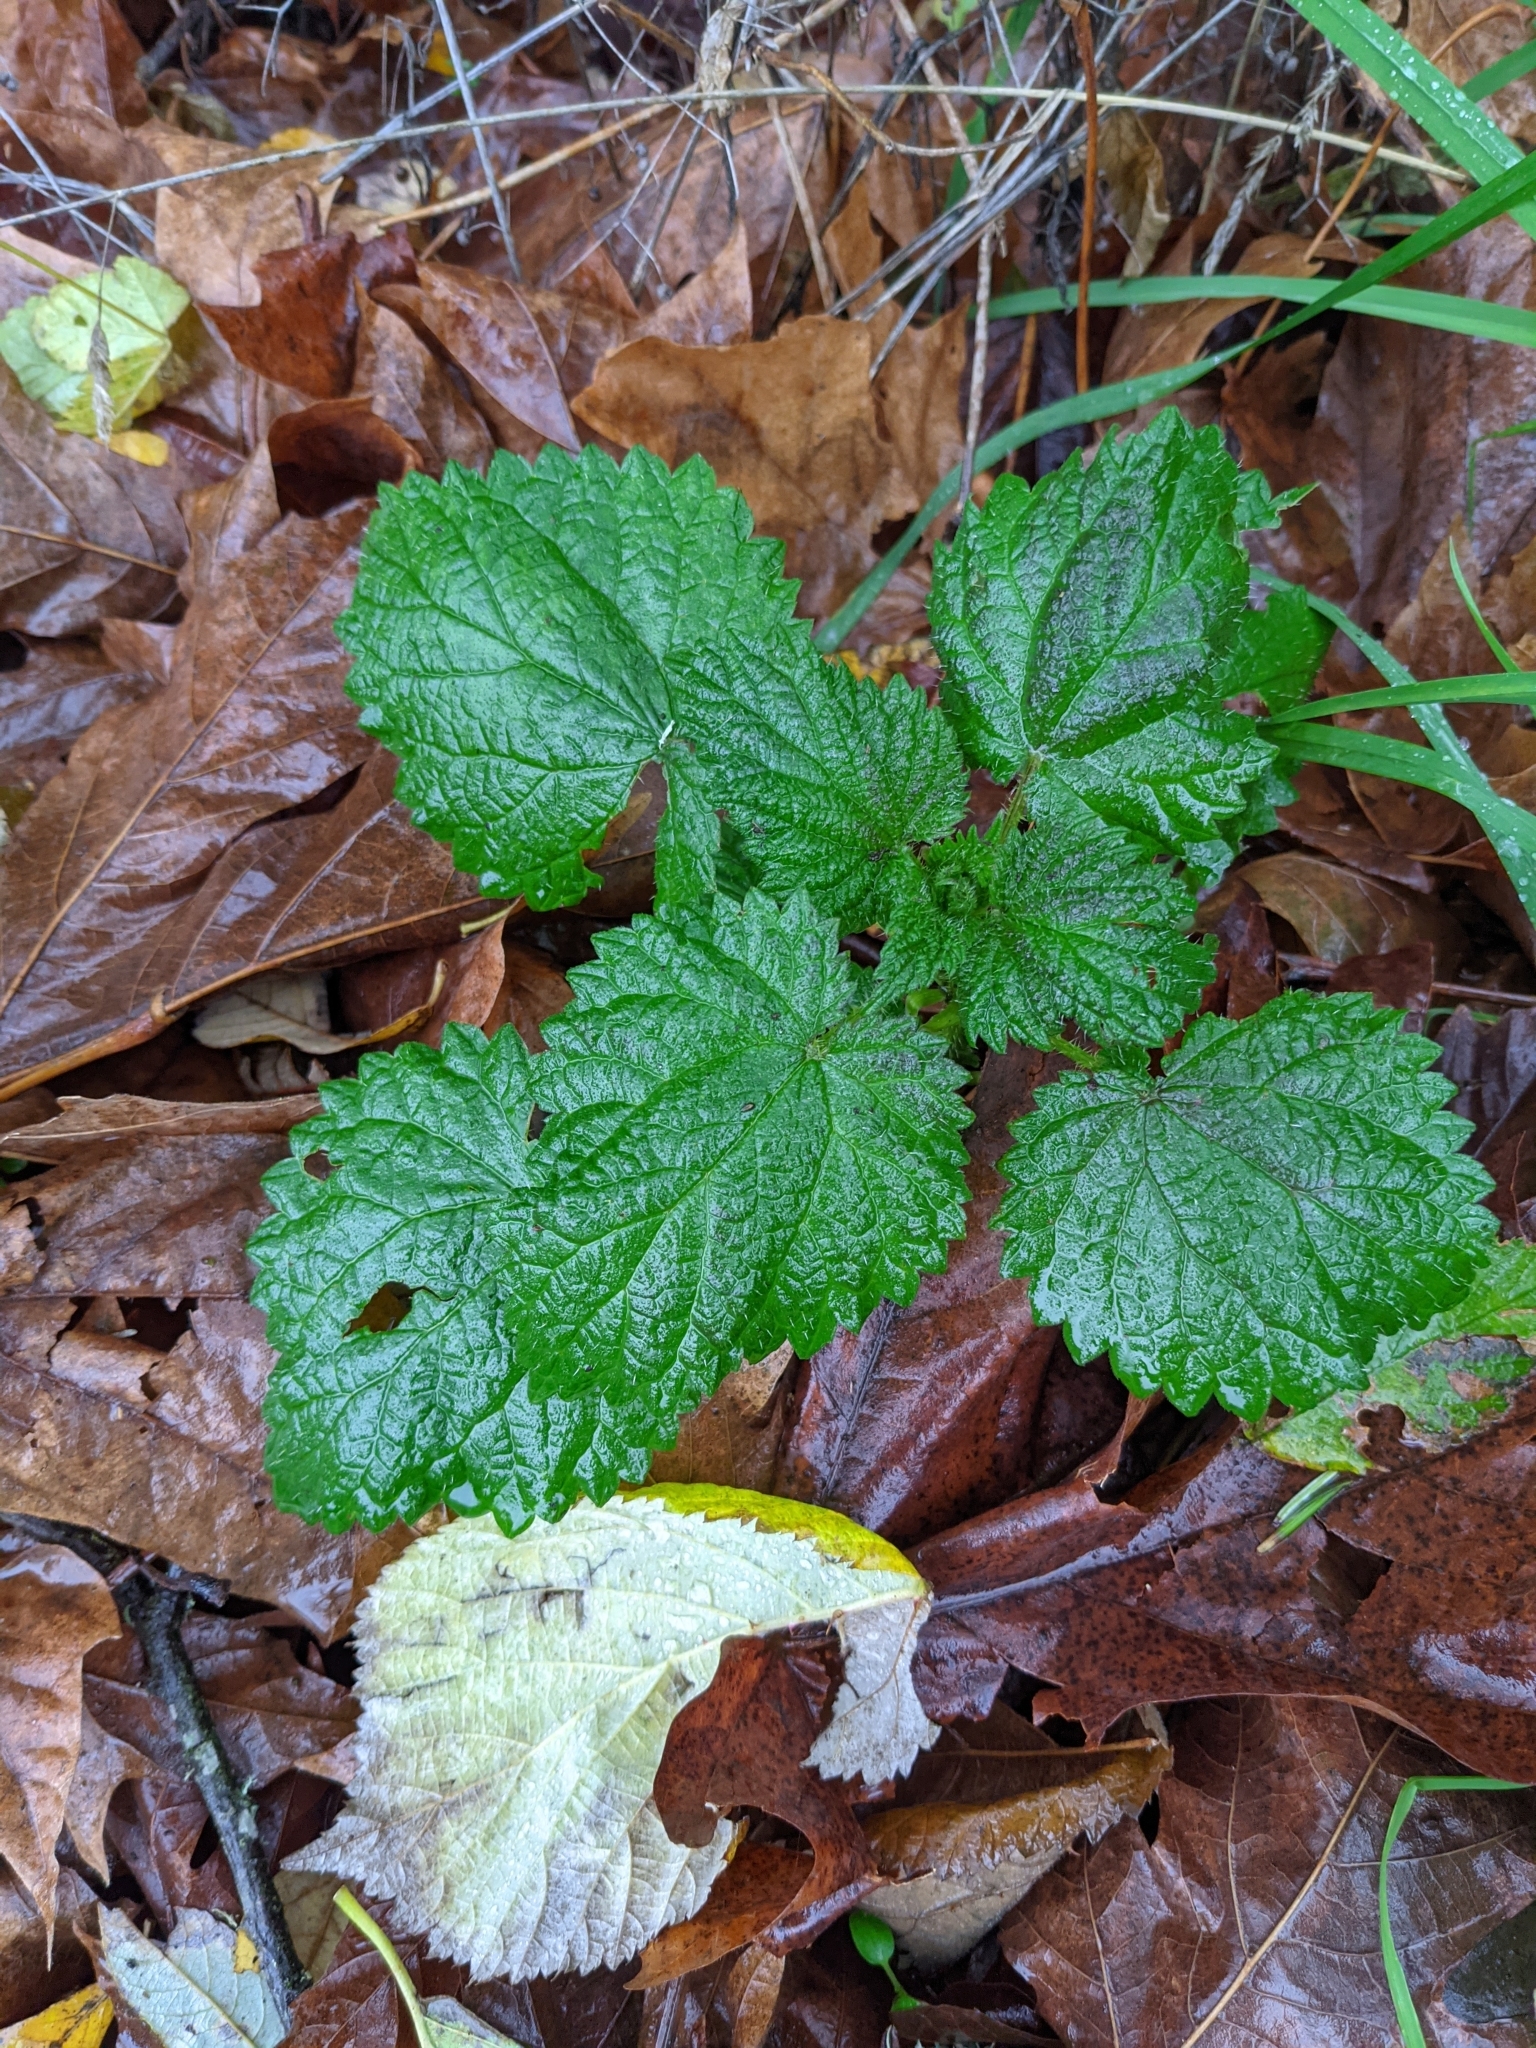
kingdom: Plantae
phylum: Tracheophyta
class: Magnoliopsida
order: Rosales
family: Urticaceae
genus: Urtica
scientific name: Urtica dioica
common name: Common nettle
